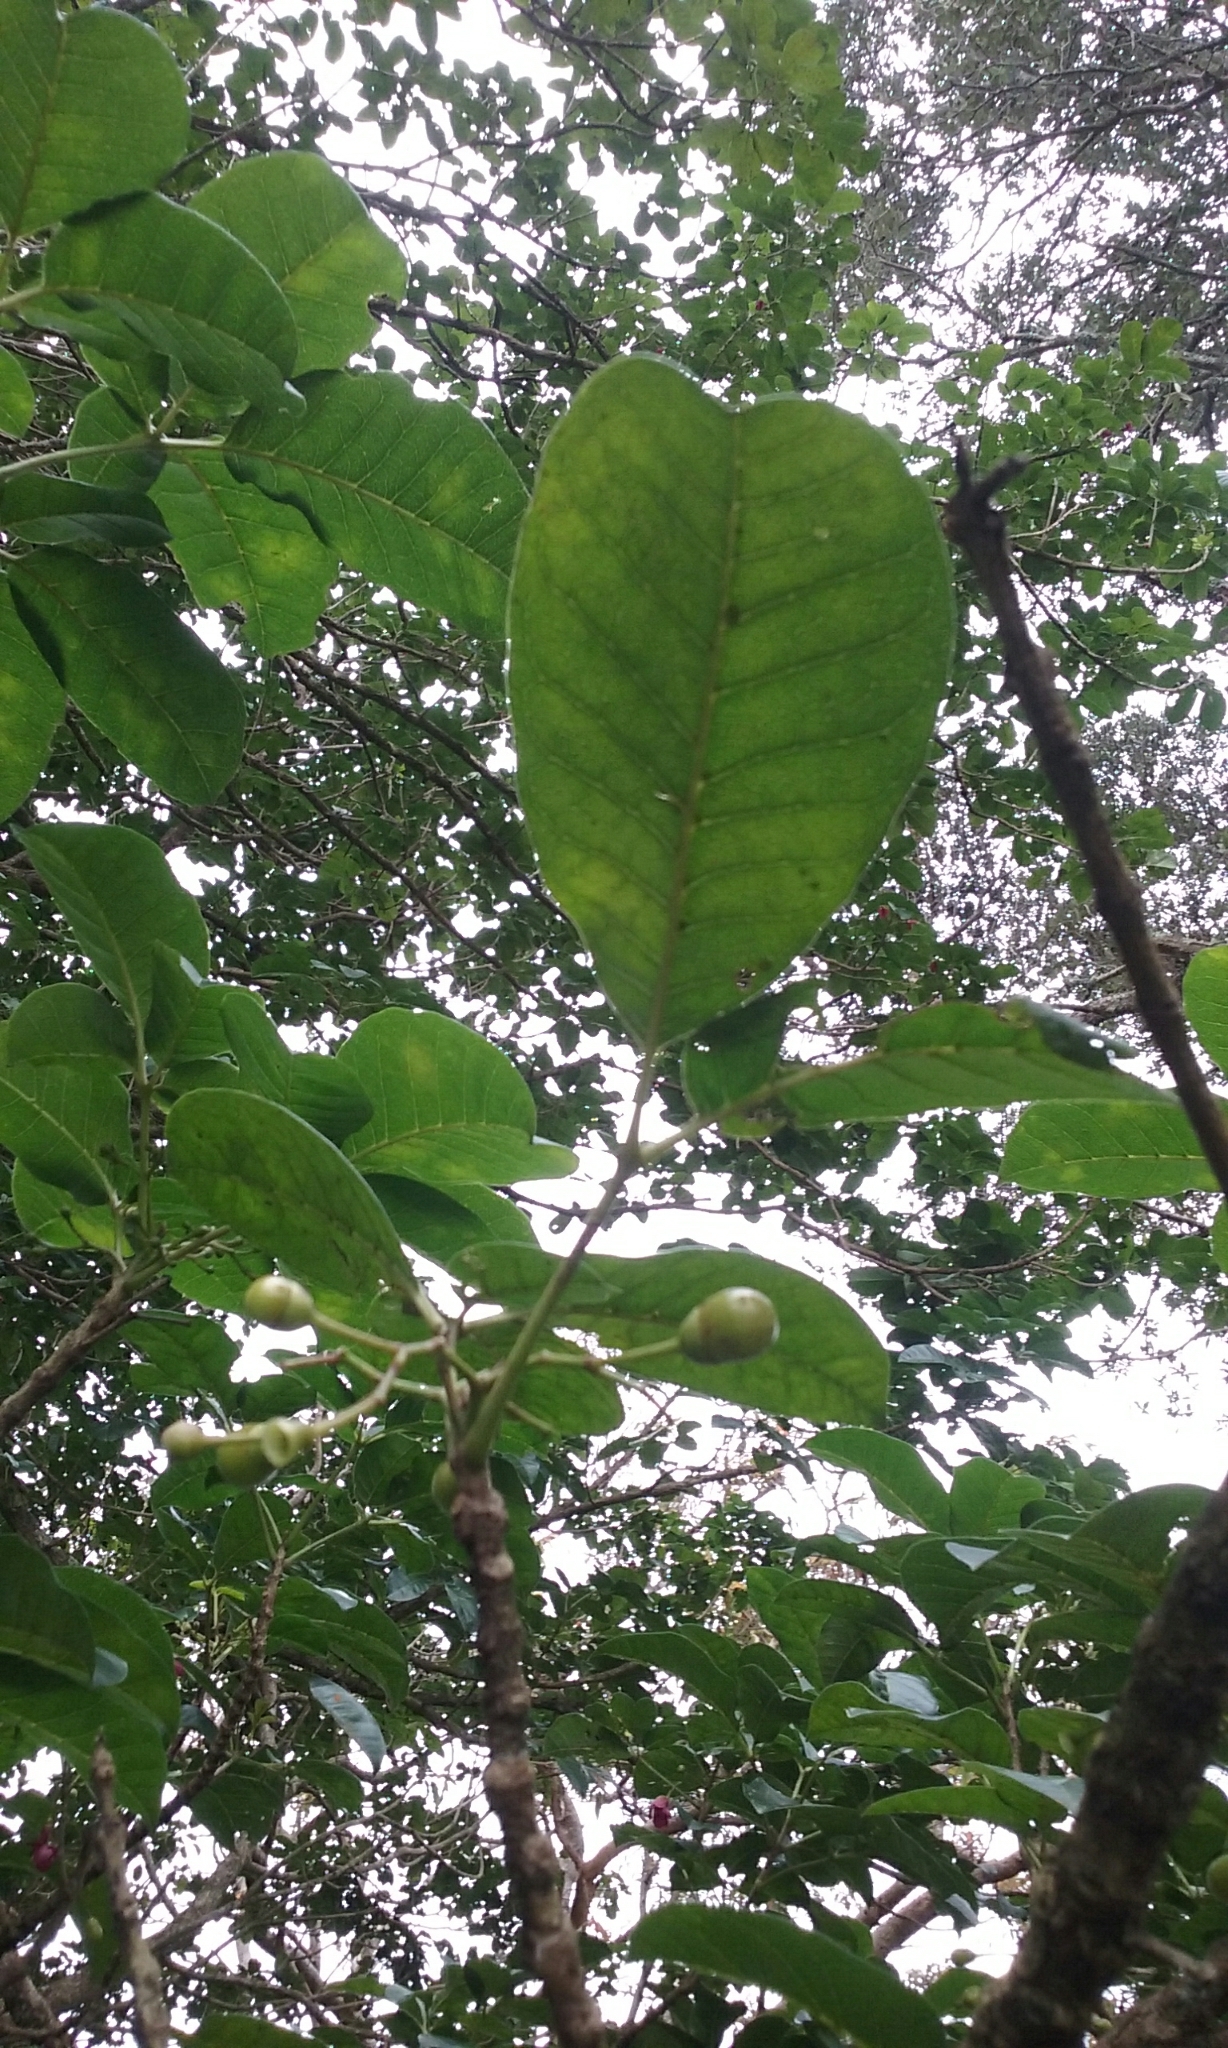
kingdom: Plantae
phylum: Tracheophyta
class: Magnoliopsida
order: Lamiales
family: Lamiaceae
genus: Vitex
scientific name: Vitex lucens
